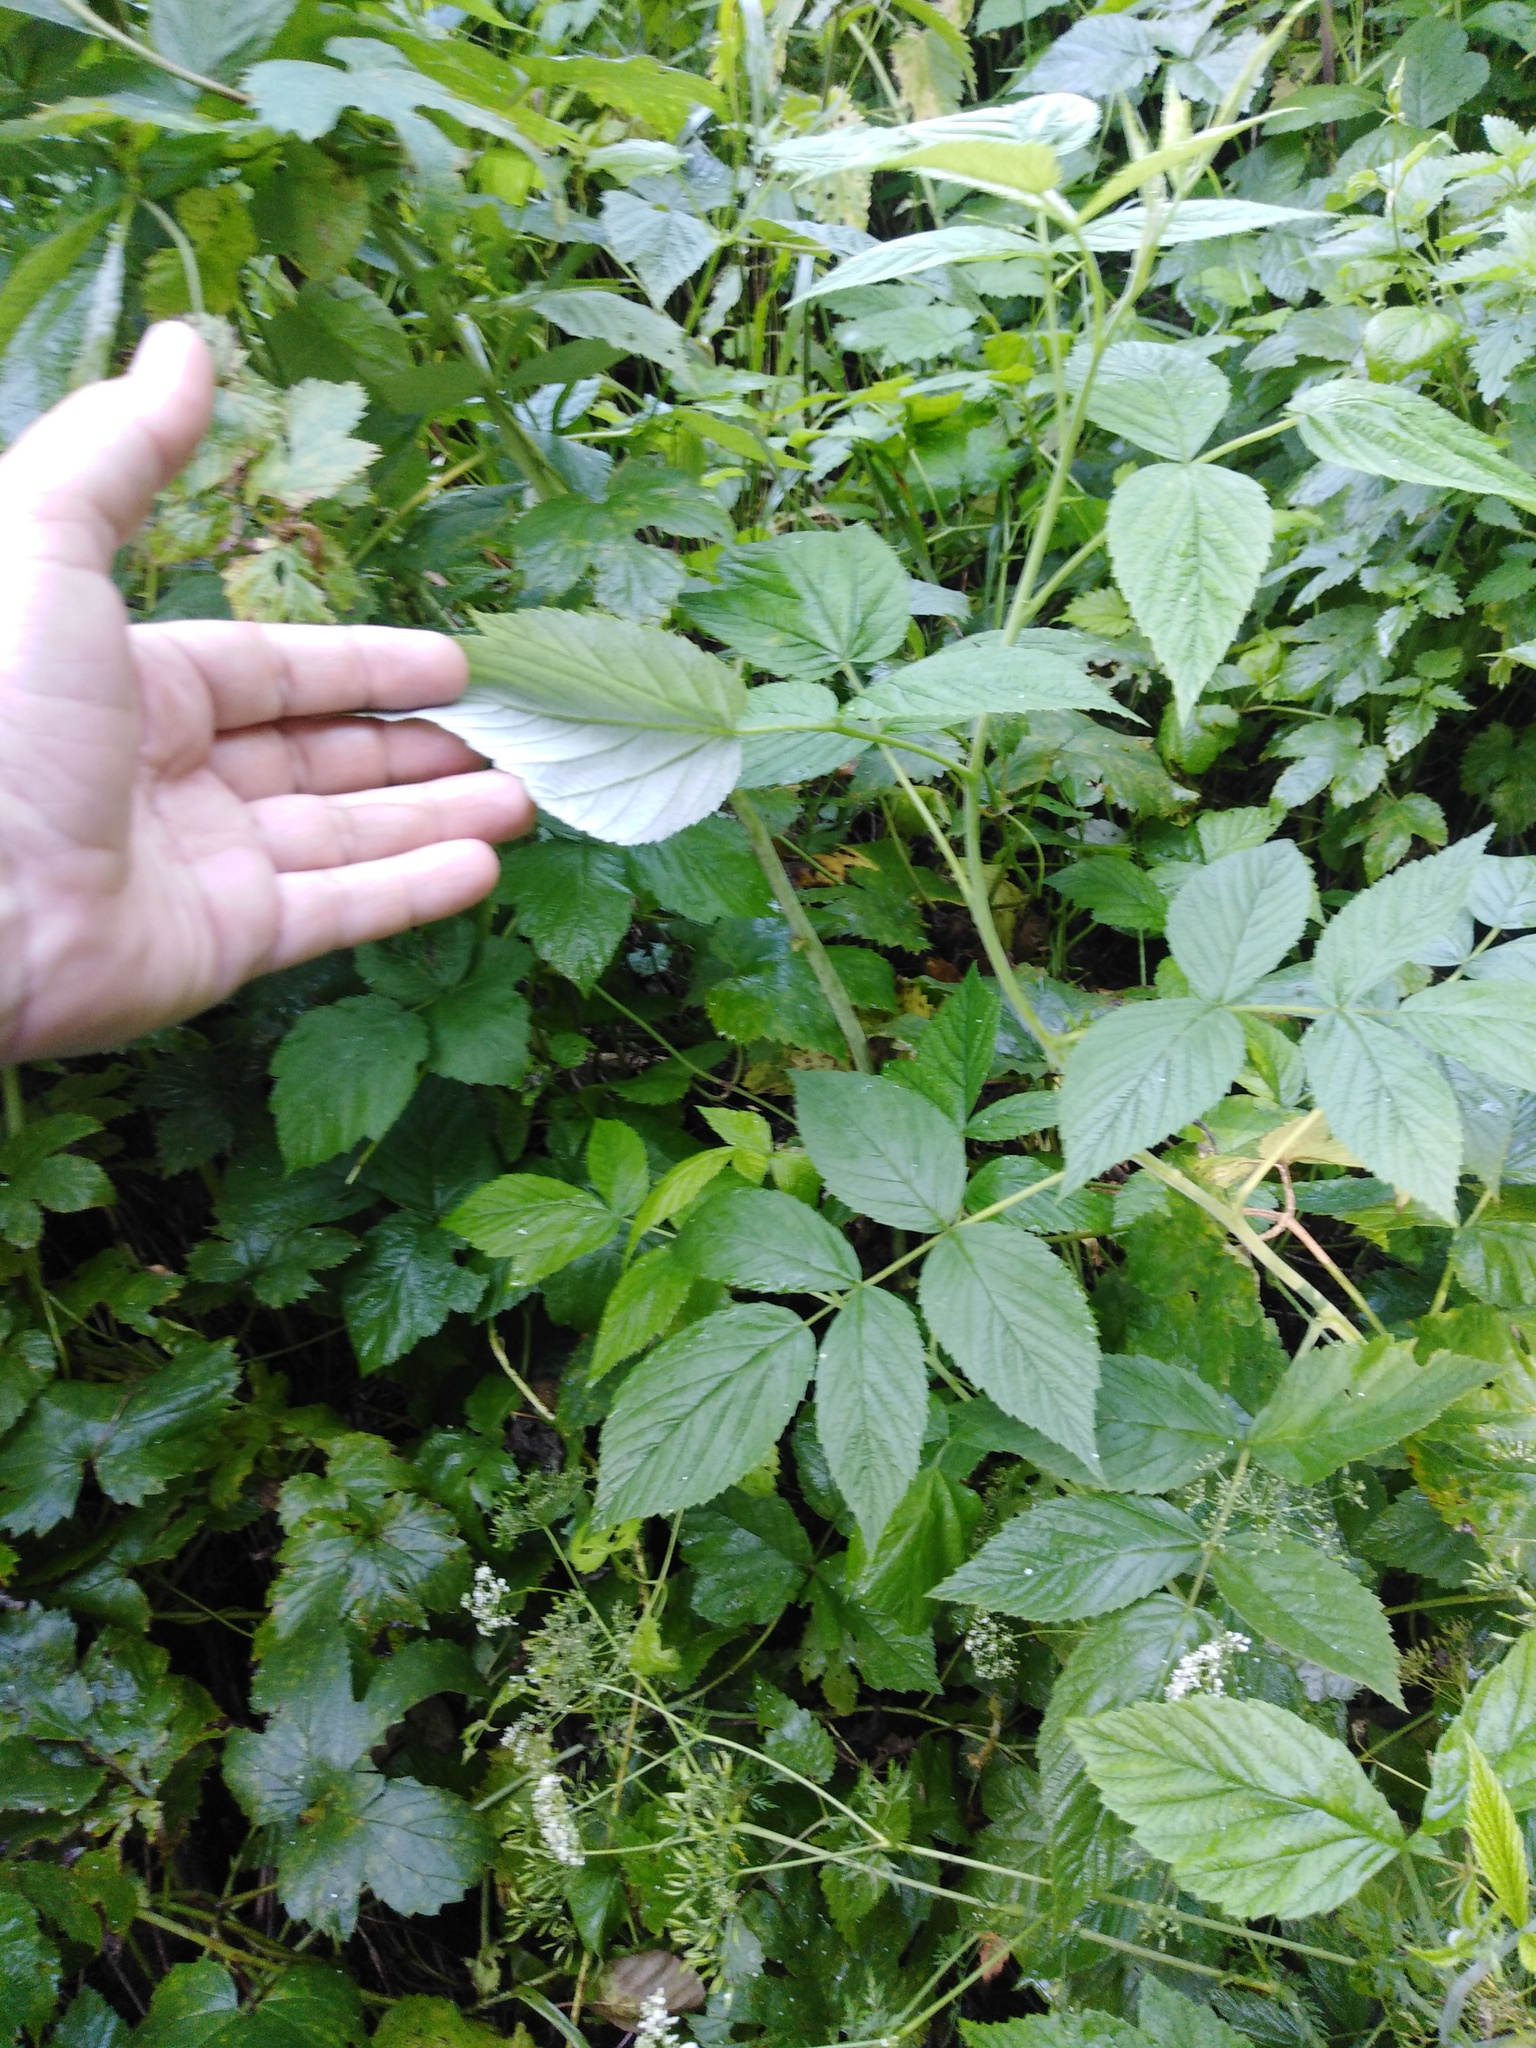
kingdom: Plantae
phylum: Tracheophyta
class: Magnoliopsida
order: Rosales
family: Rosaceae
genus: Rubus
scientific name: Rubus idaeus
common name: Raspberry
